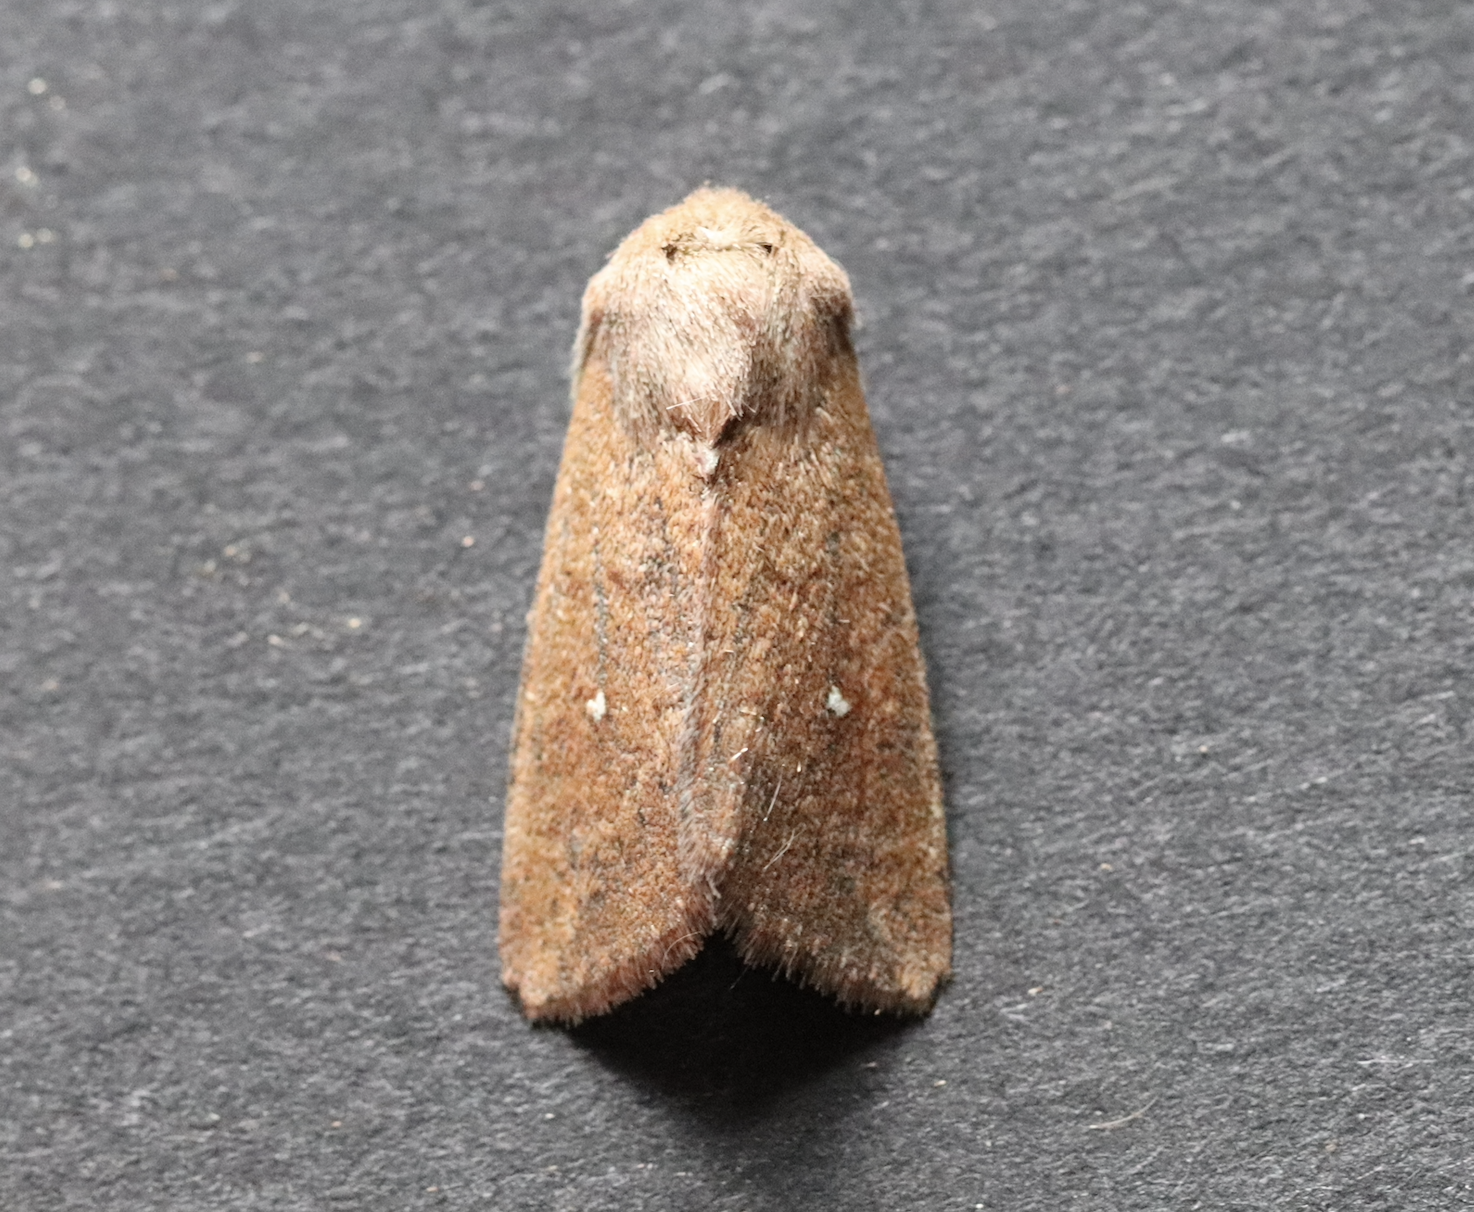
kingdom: Animalia
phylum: Arthropoda
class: Insecta
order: Lepidoptera
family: Noctuidae
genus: Mythimna
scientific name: Mythimna albipuncta
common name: White-point
